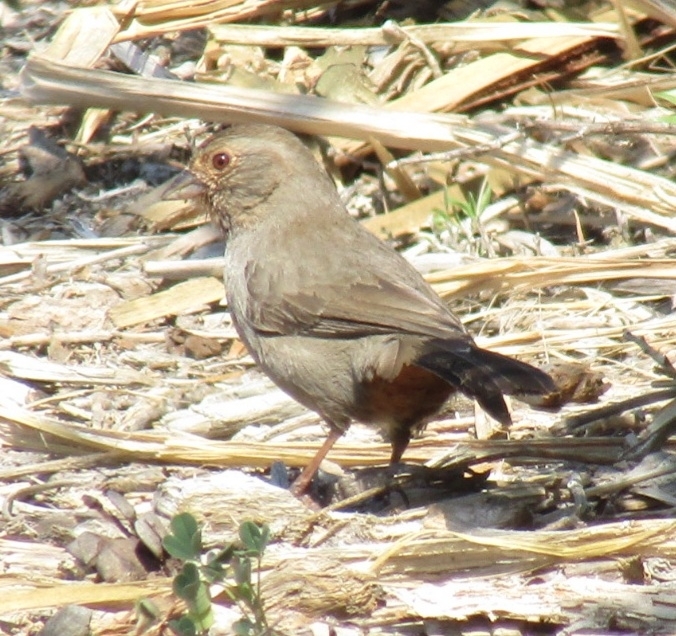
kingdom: Animalia
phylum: Chordata
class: Aves
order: Passeriformes
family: Passerellidae
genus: Melozone
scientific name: Melozone crissalis
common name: California towhee
